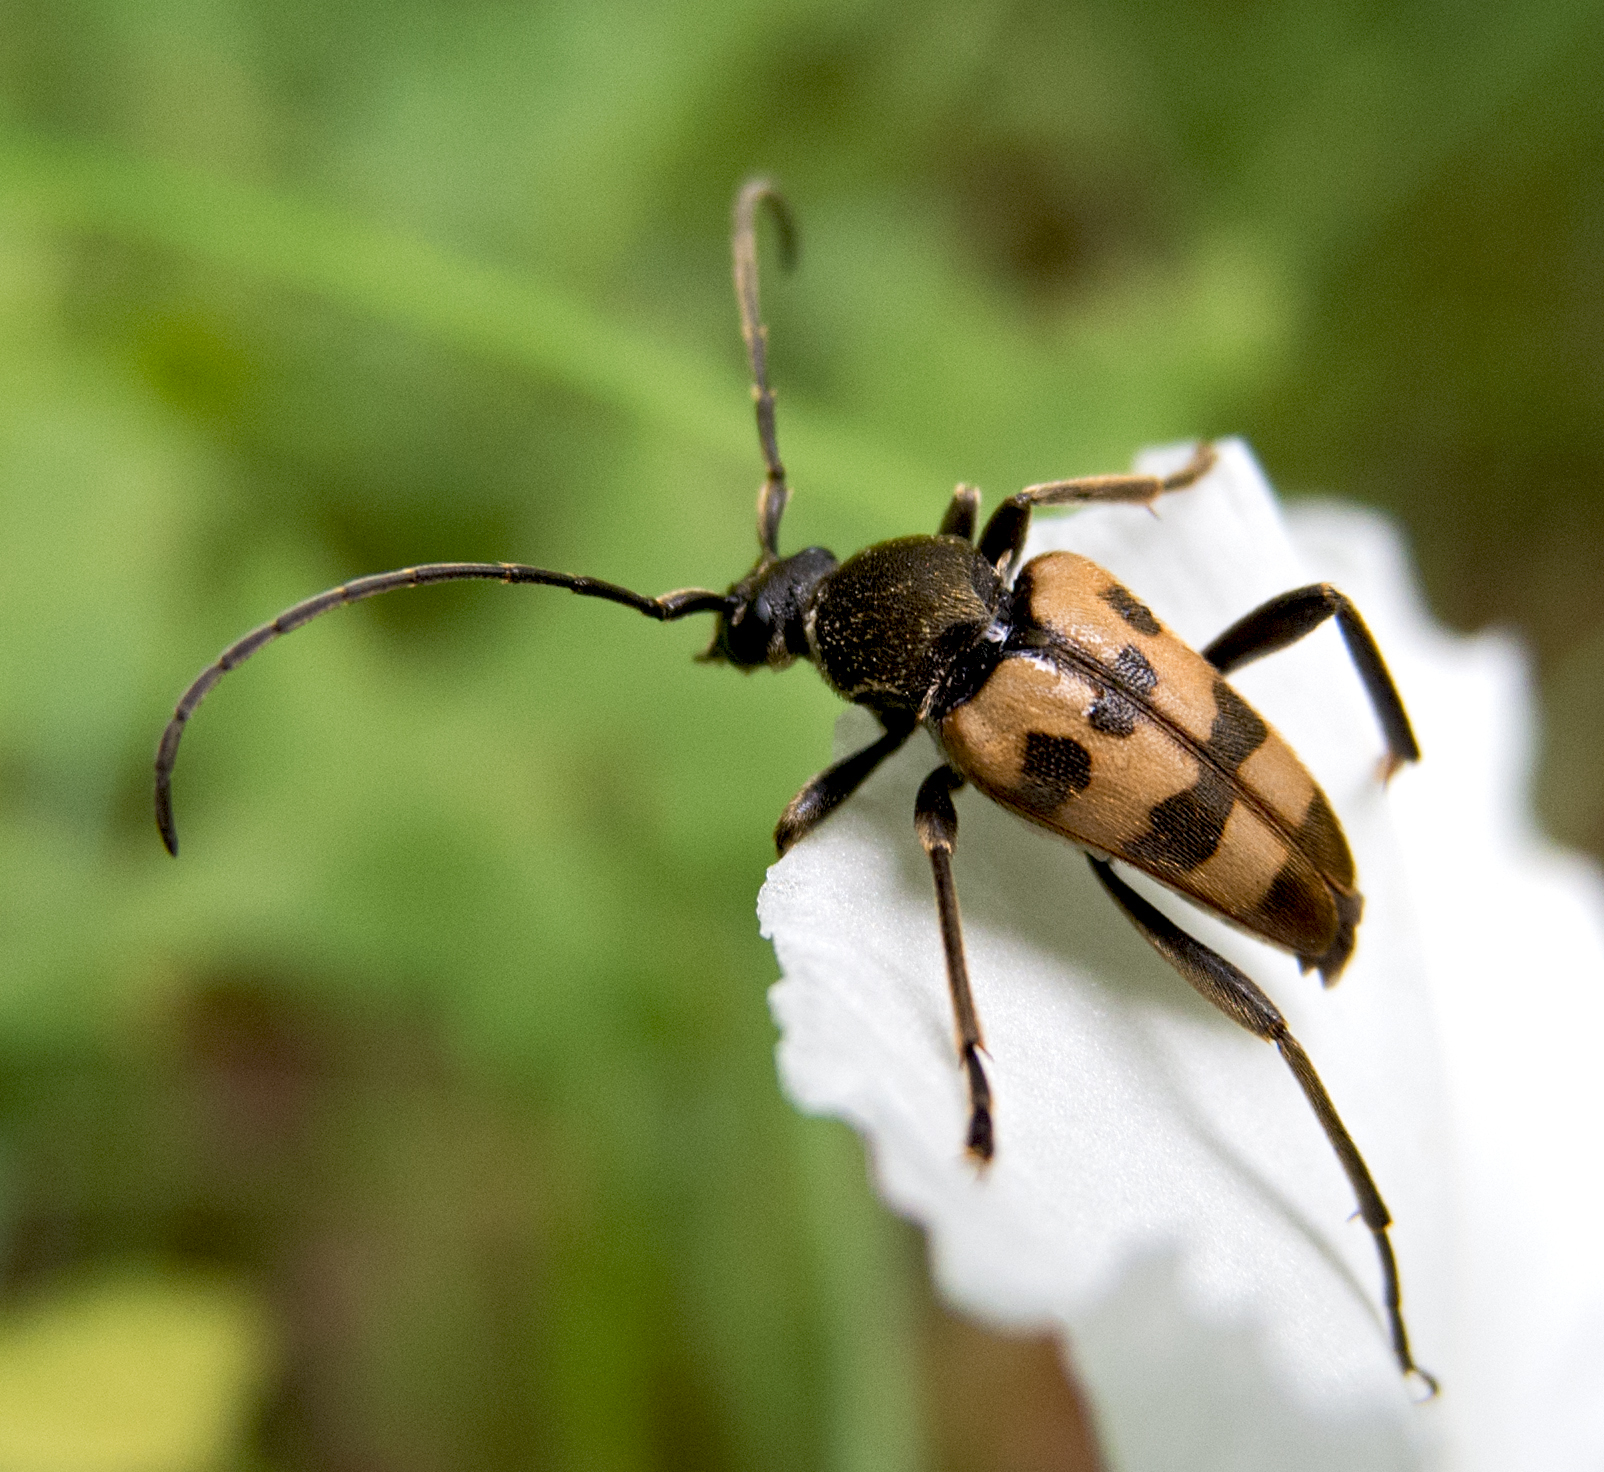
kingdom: Animalia
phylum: Arthropoda
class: Insecta
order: Coleoptera
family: Cerambycidae
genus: Pachytodes
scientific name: Pachytodes
